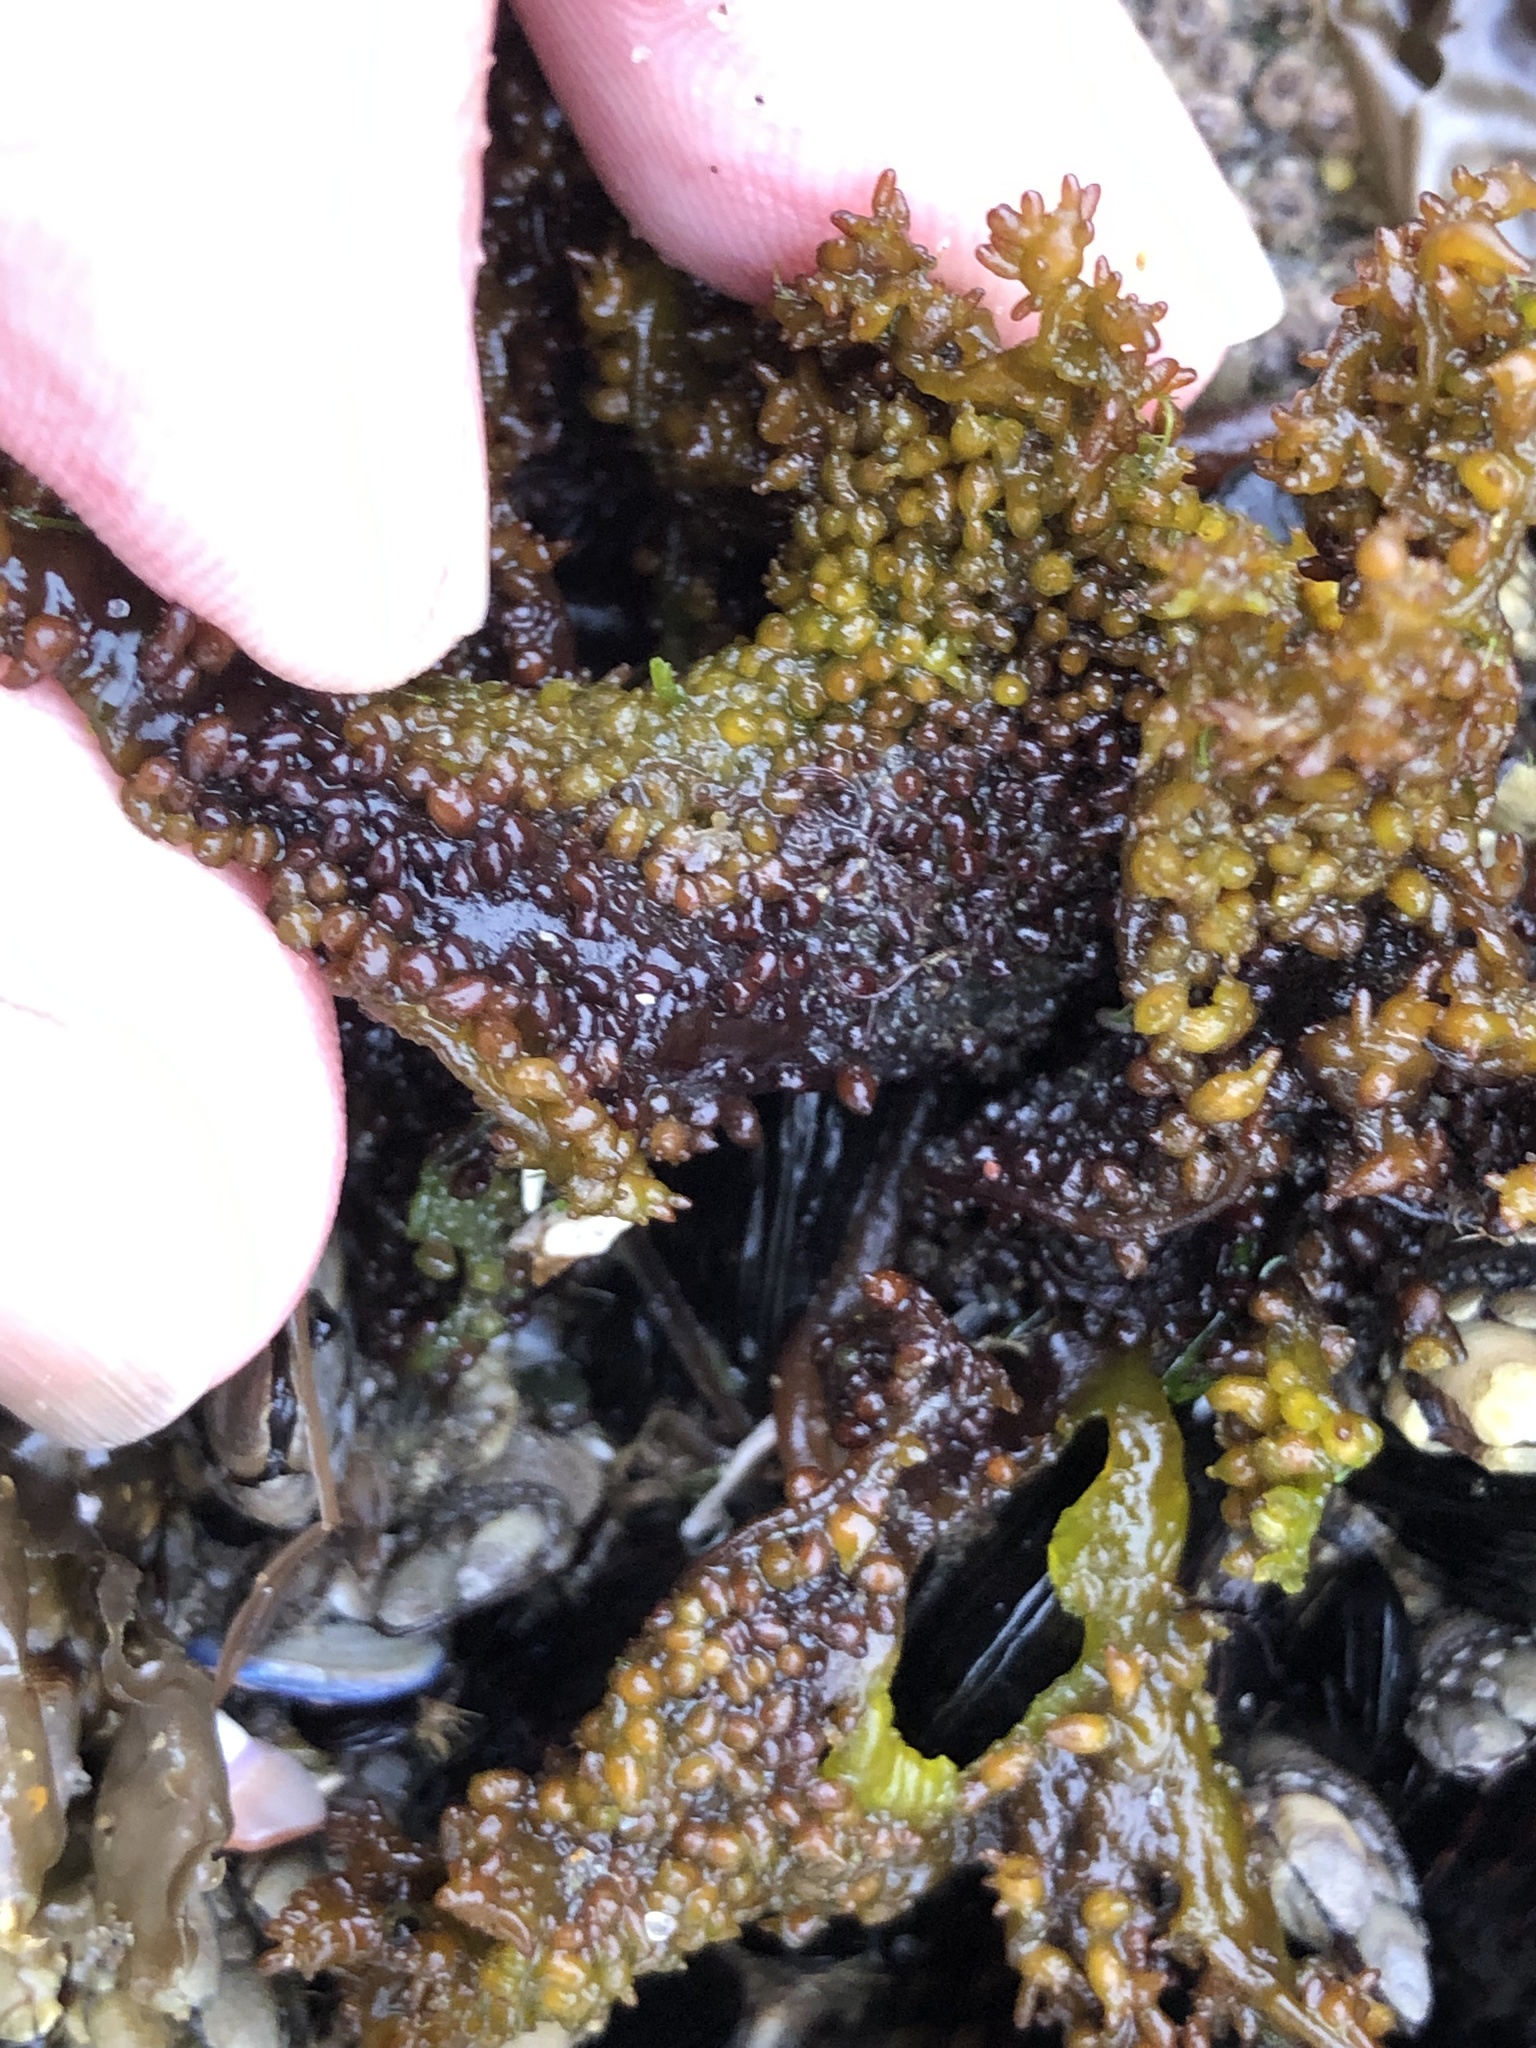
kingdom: Plantae
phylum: Rhodophyta
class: Florideophyceae
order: Gigartinales
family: Phyllophoraceae
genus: Mastocarpus
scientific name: Mastocarpus papillatus
